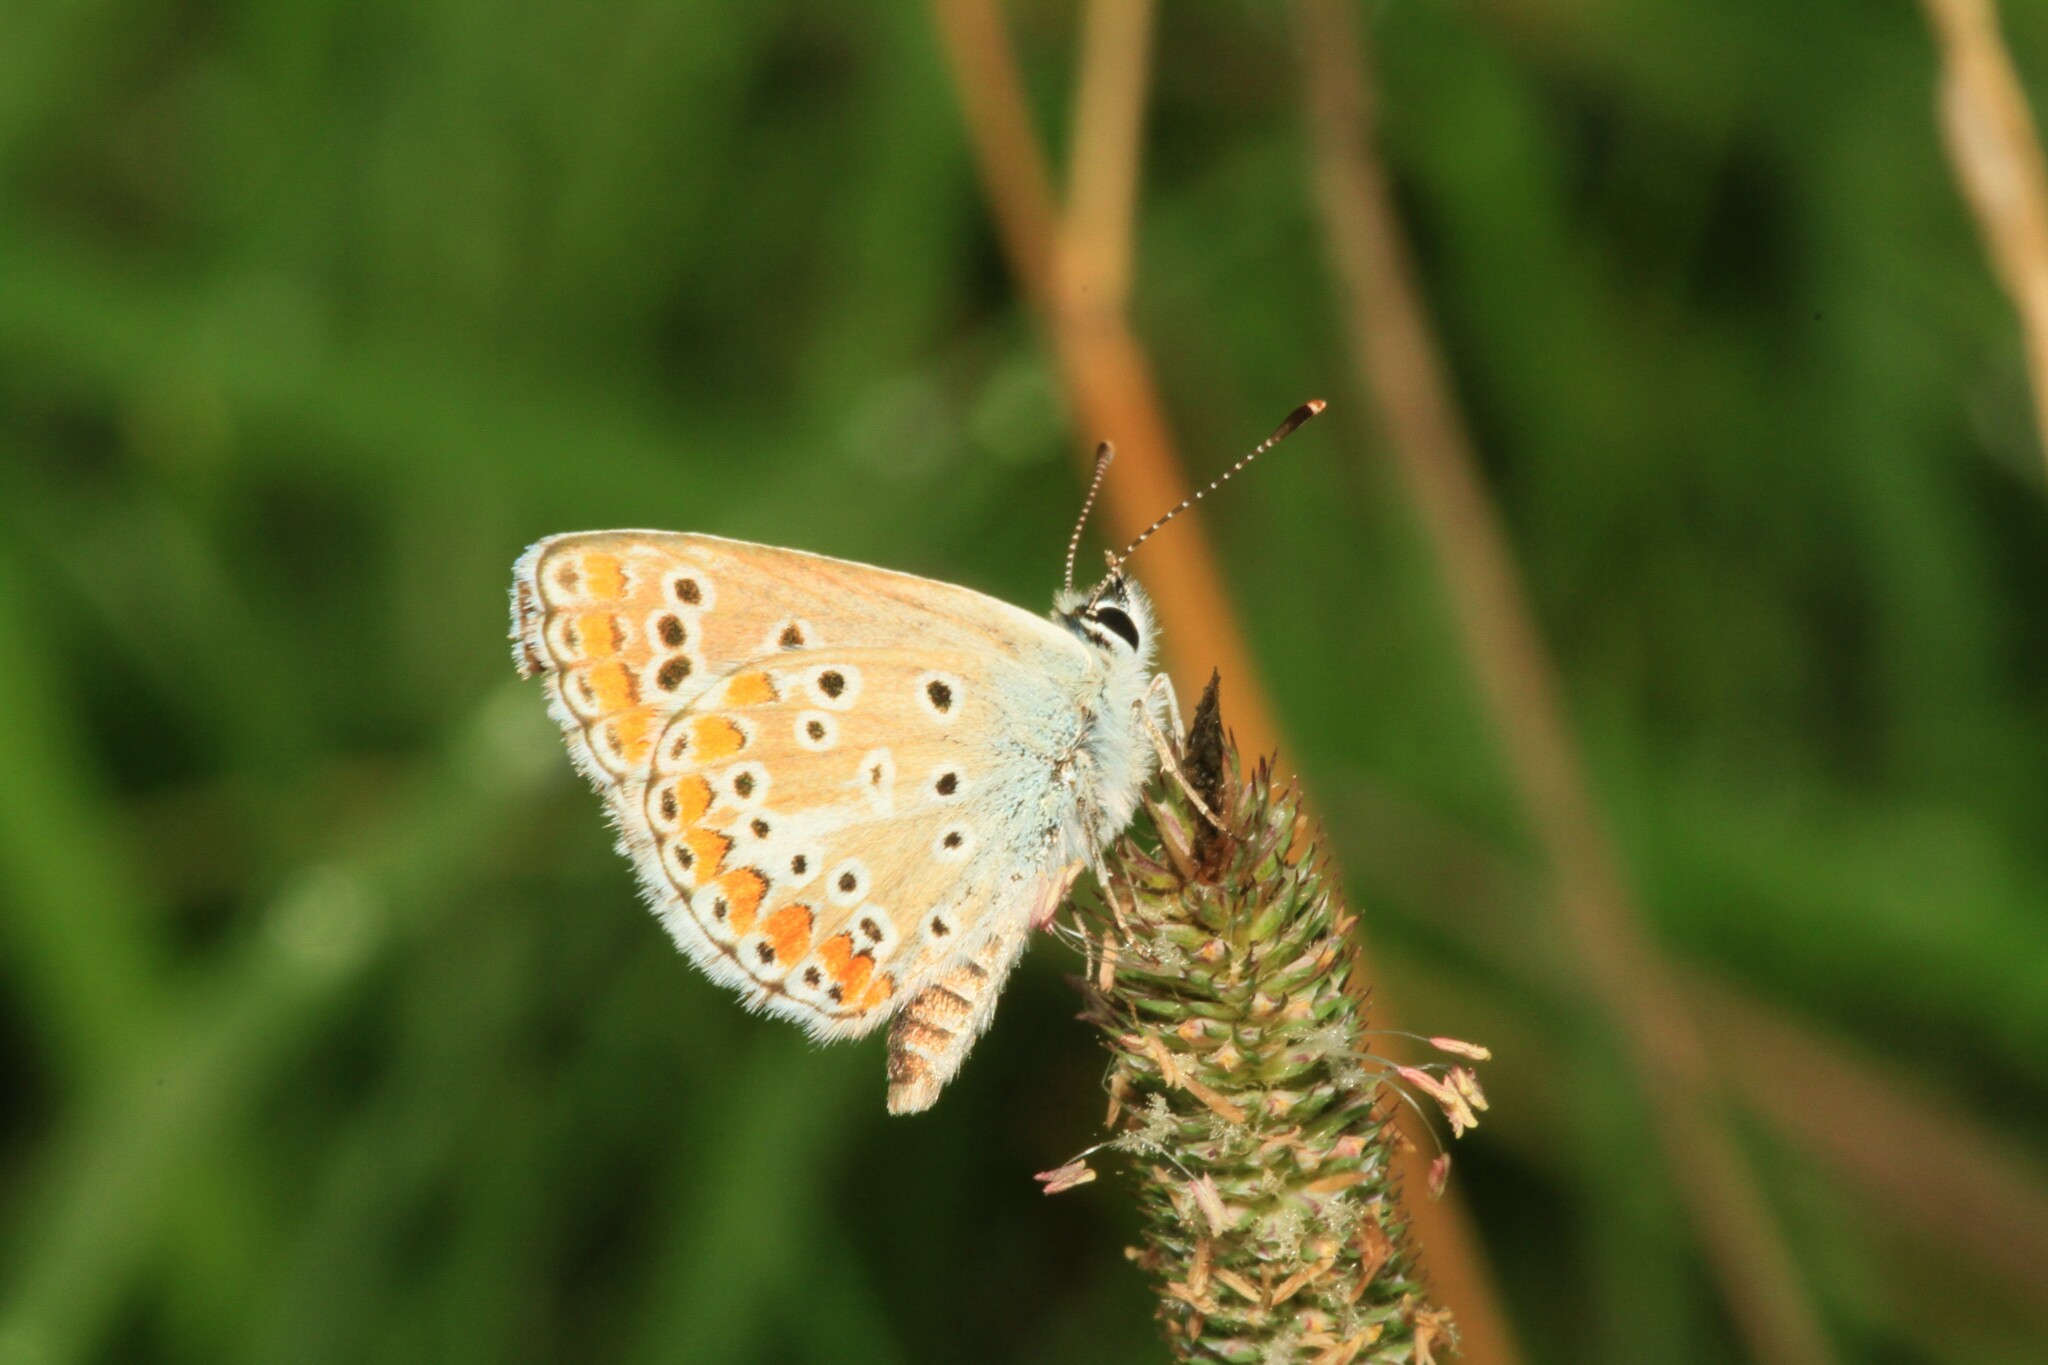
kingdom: Animalia
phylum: Arthropoda
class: Insecta
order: Lepidoptera
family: Lycaenidae
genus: Aricia
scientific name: Aricia agestis
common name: Brown argus
